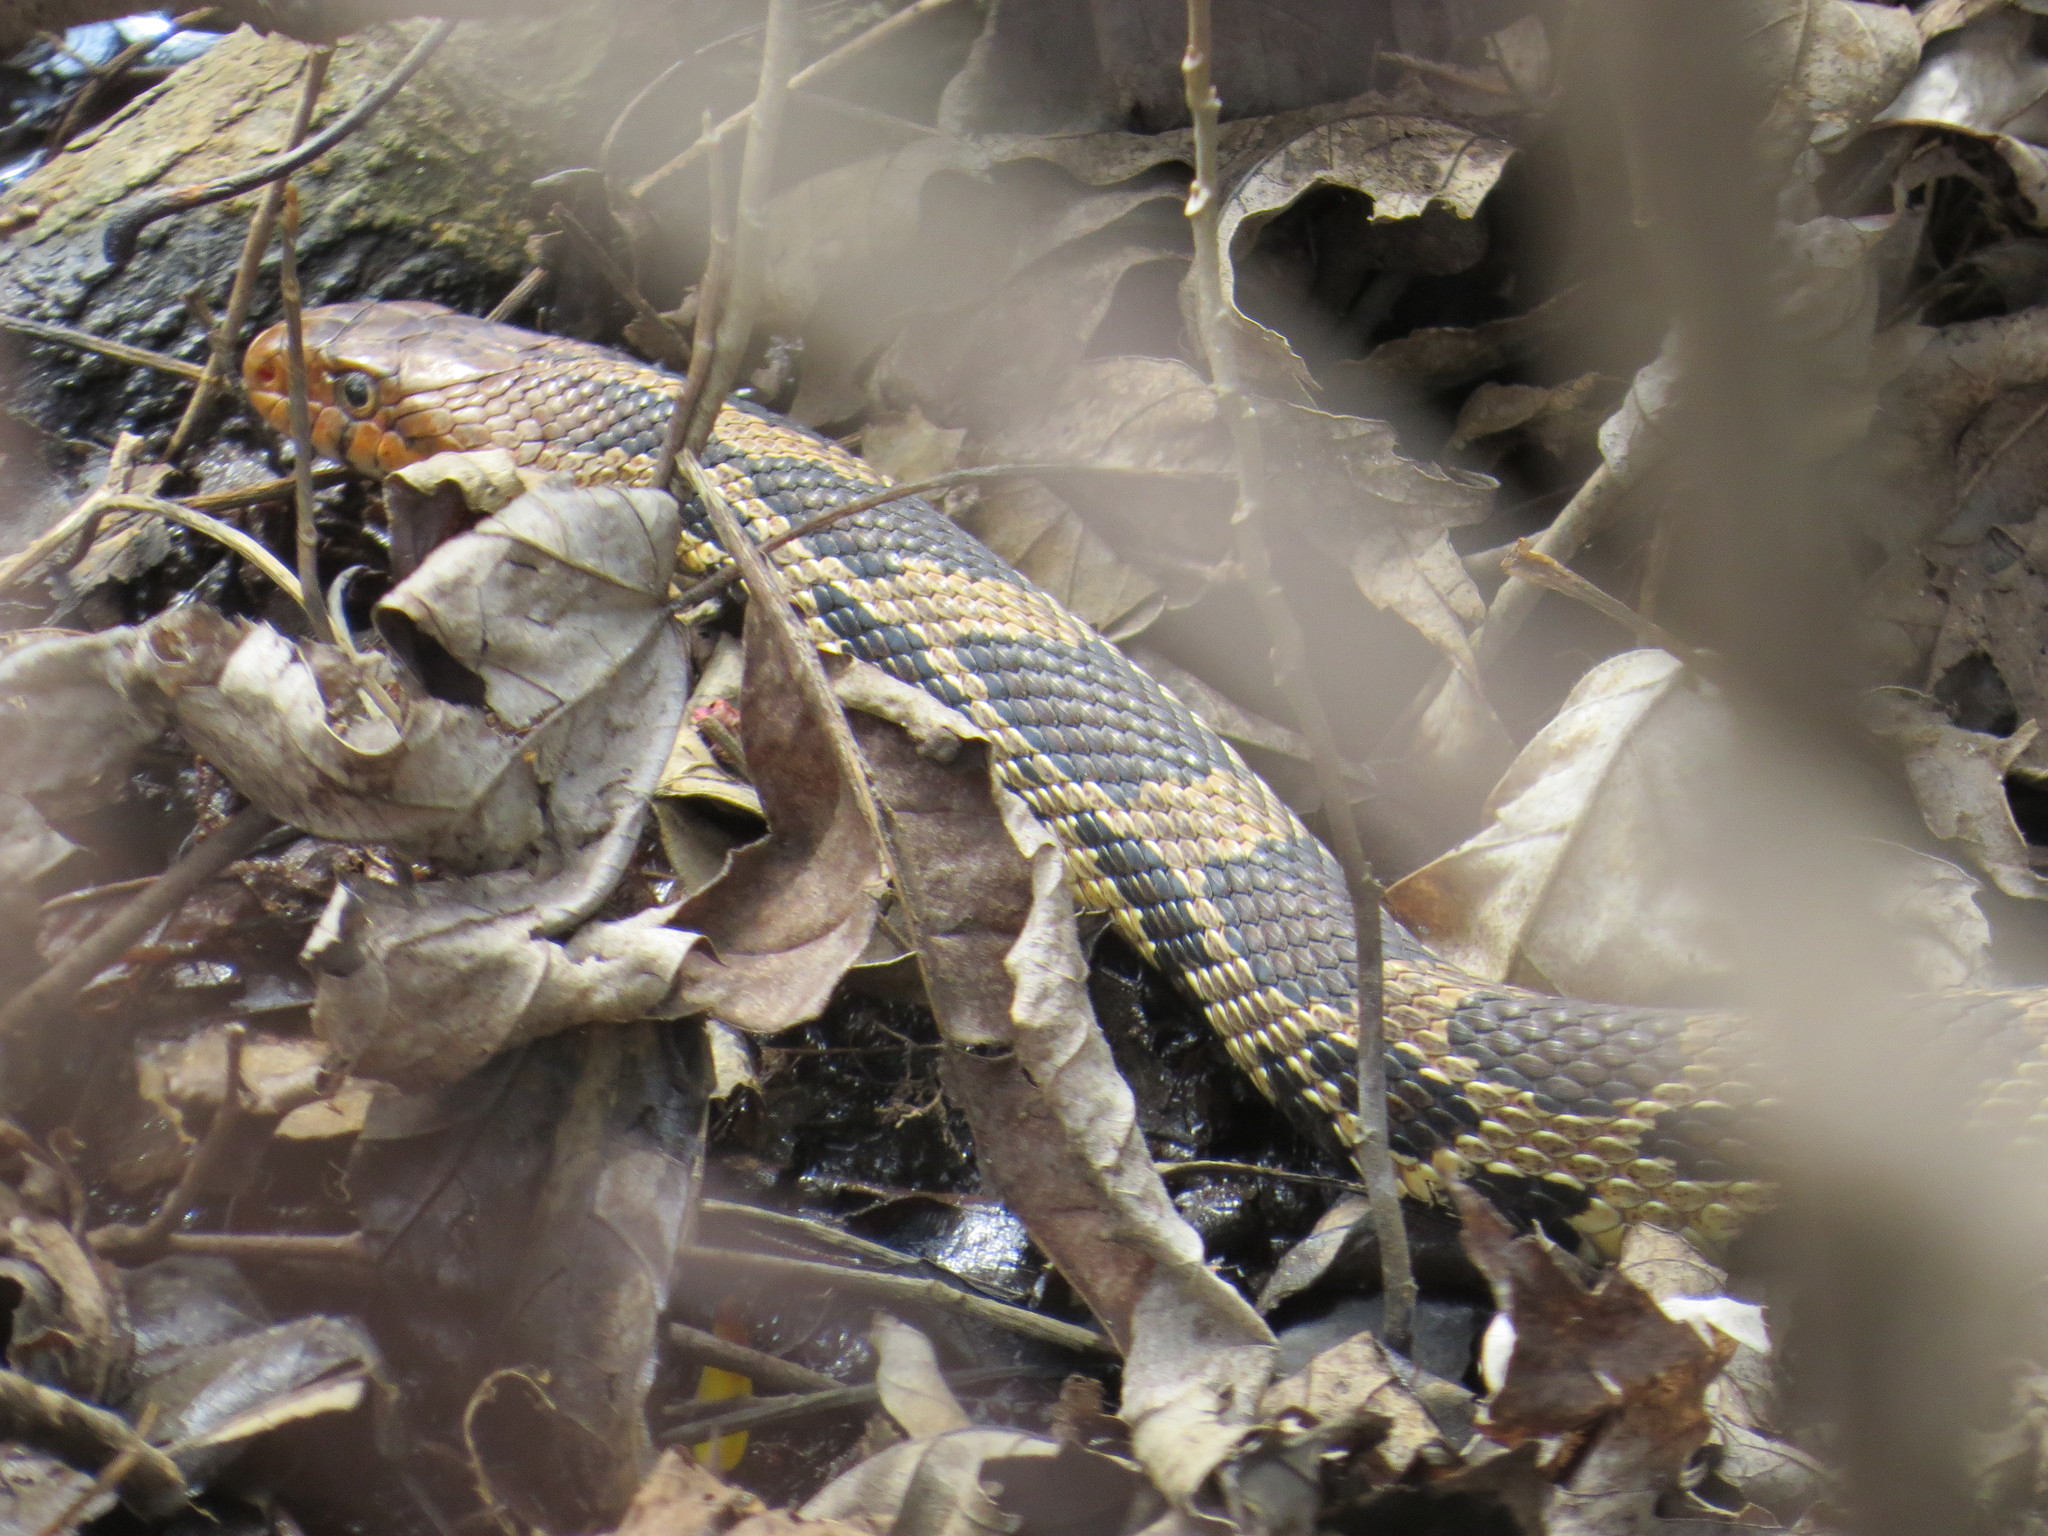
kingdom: Animalia
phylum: Chordata
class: Squamata
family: Colubridae
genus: Pantherophis
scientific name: Pantherophis vulpinus
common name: Eastern fox snake
